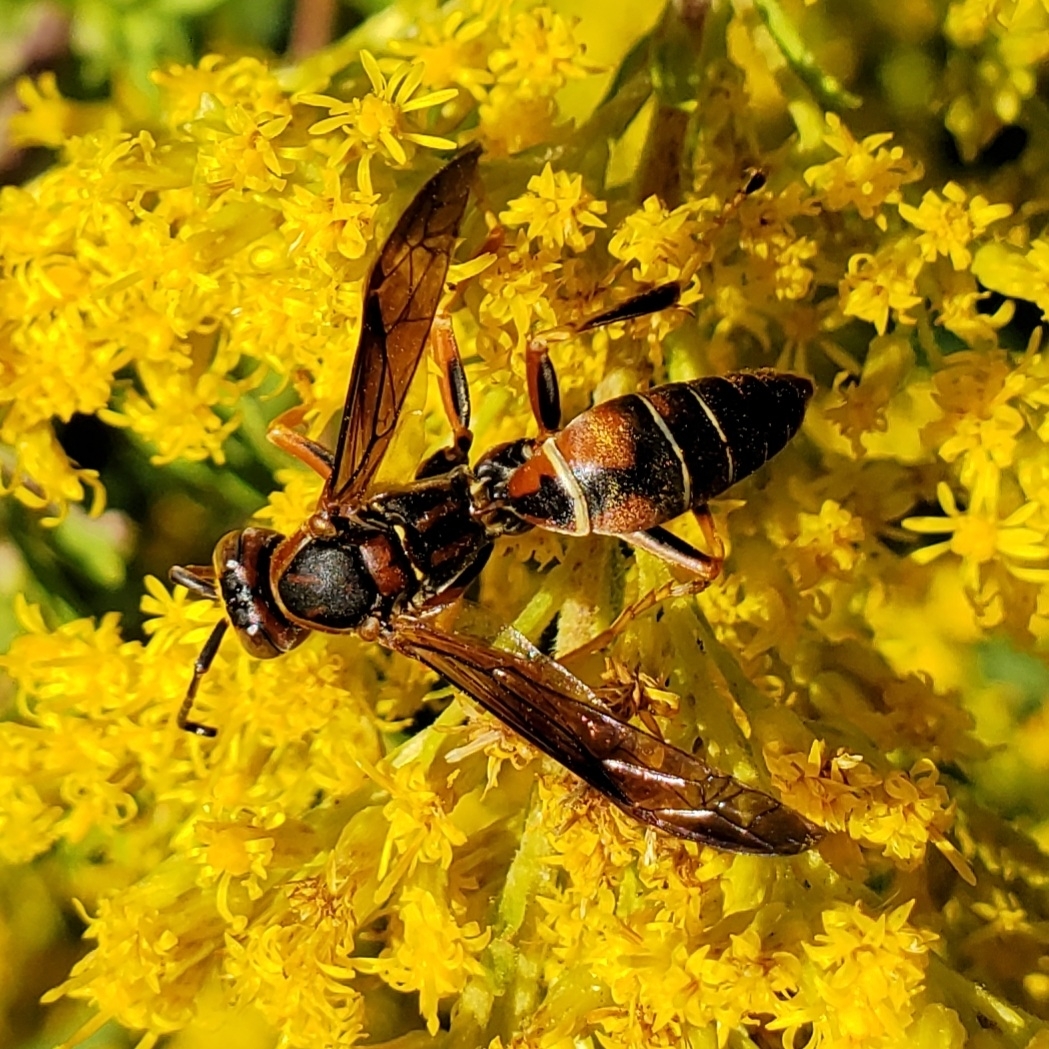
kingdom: Animalia
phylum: Arthropoda
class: Insecta
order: Hymenoptera
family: Eumenidae
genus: Polistes
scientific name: Polistes fuscatus
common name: Dark paper wasp
